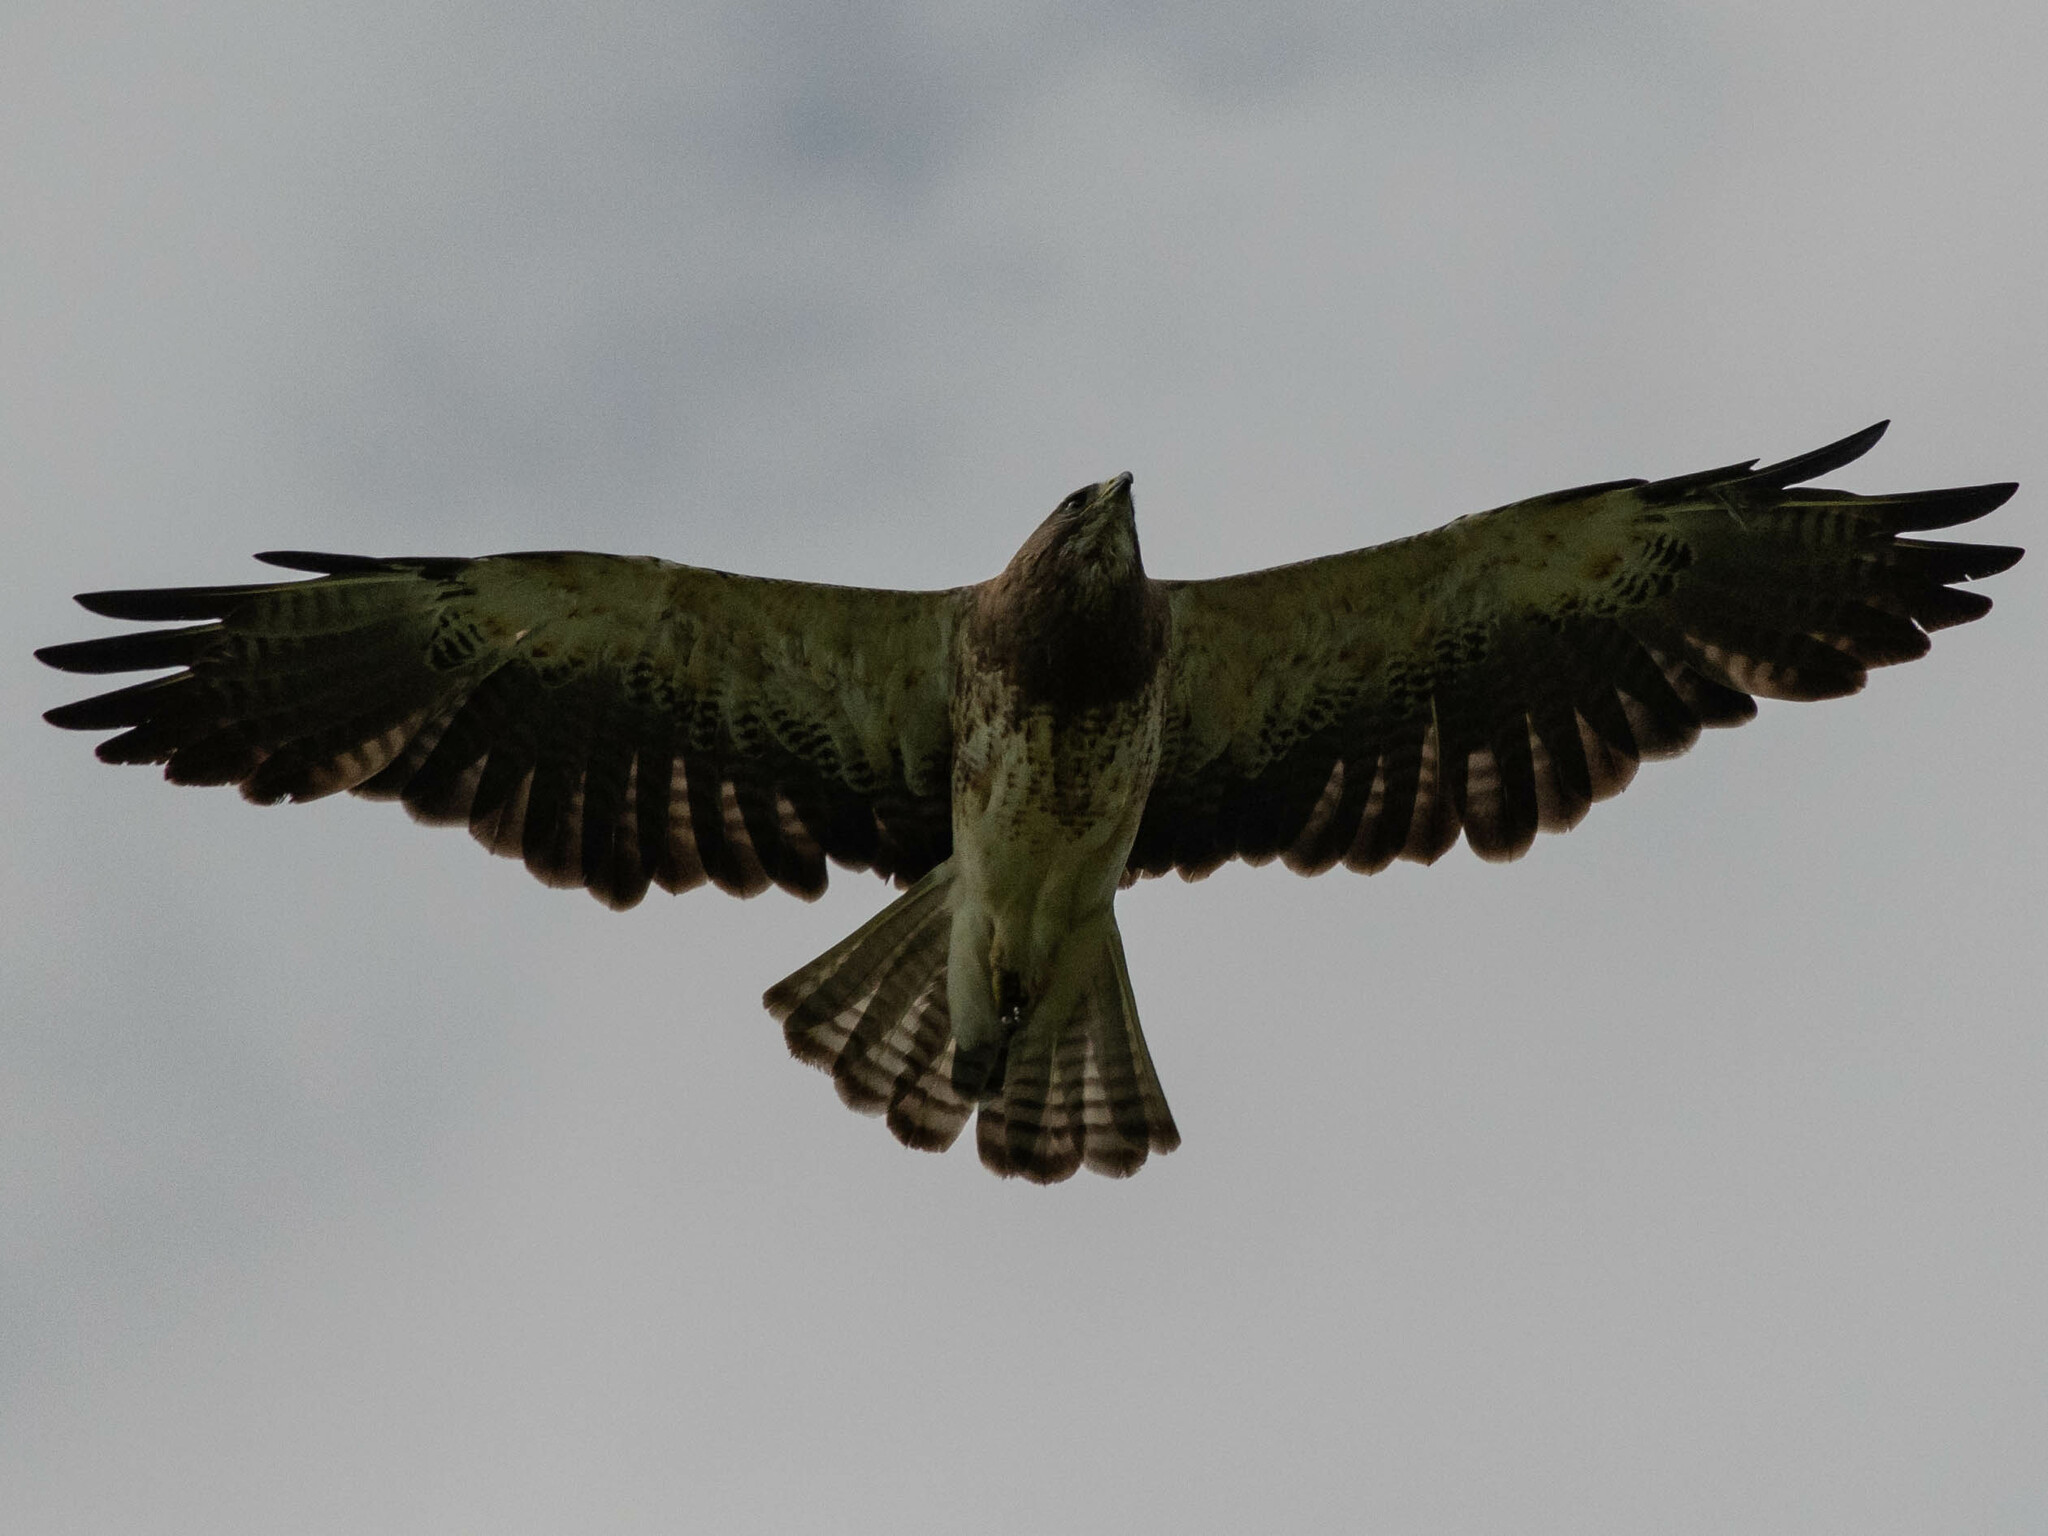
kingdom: Animalia
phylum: Chordata
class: Aves
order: Accipitriformes
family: Accipitridae
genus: Buteo
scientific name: Buteo swainsoni
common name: Swainson's hawk
